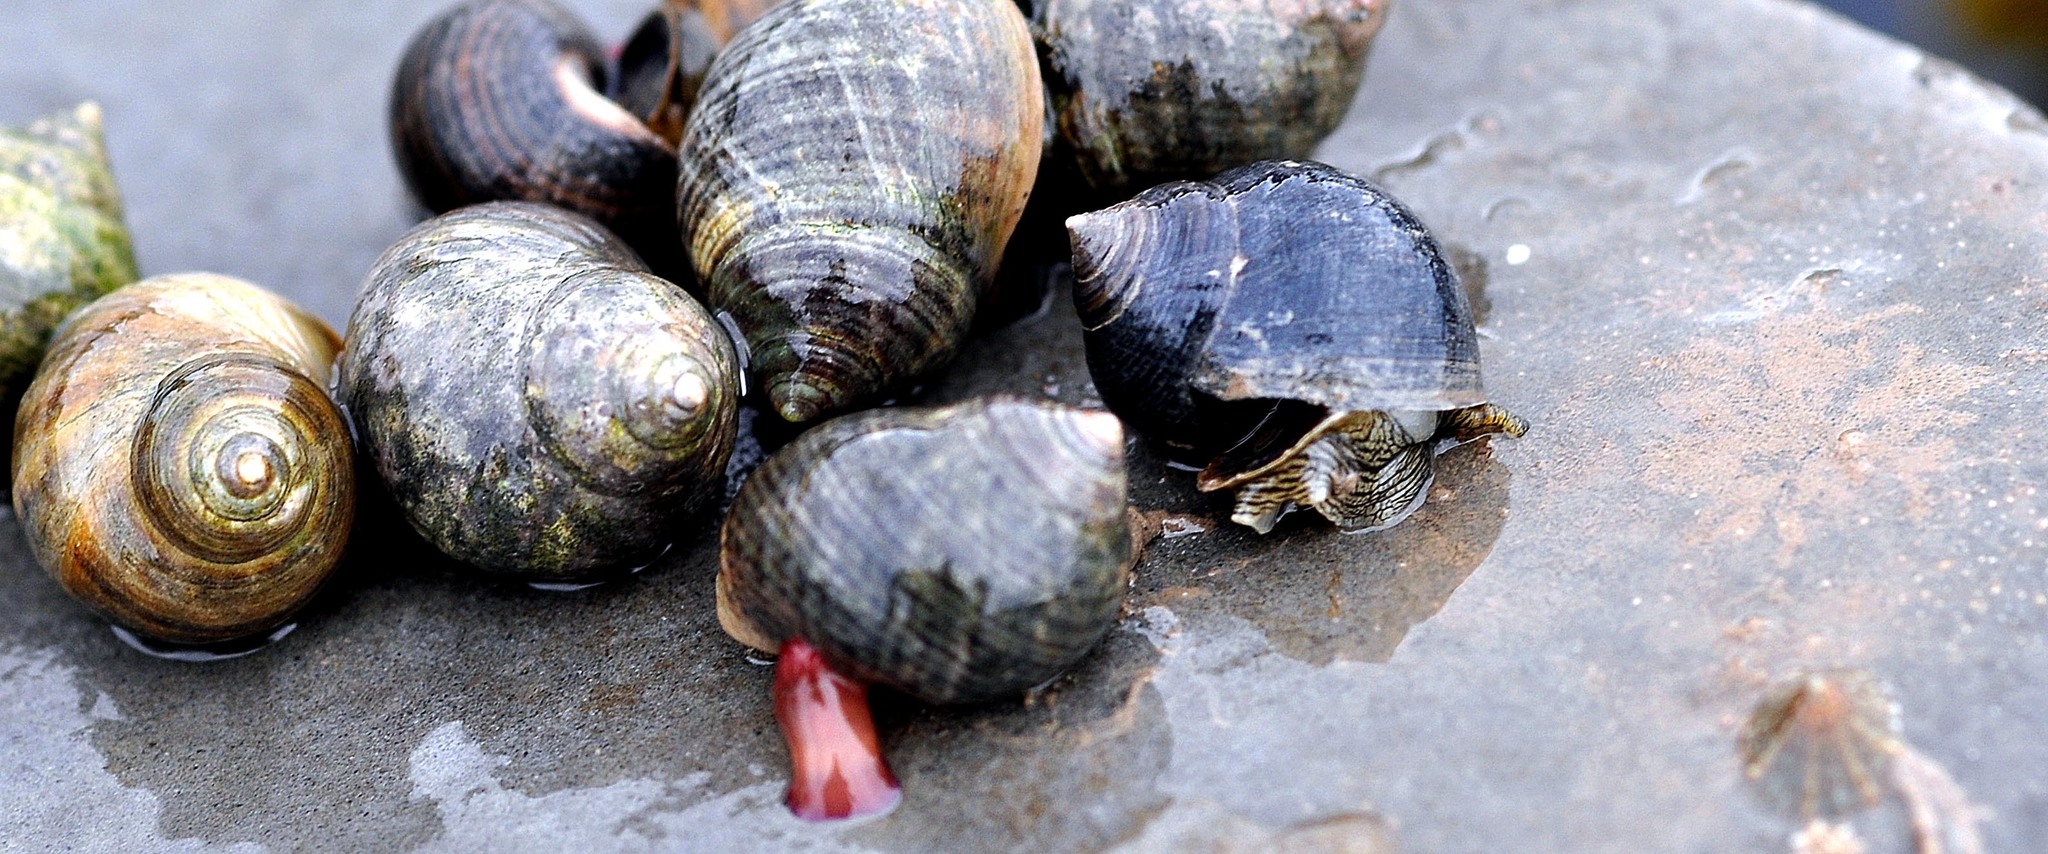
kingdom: Animalia
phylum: Mollusca
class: Gastropoda
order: Littorinimorpha
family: Littorinidae
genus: Littorina
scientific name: Littorina littorea
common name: Common periwinkle
